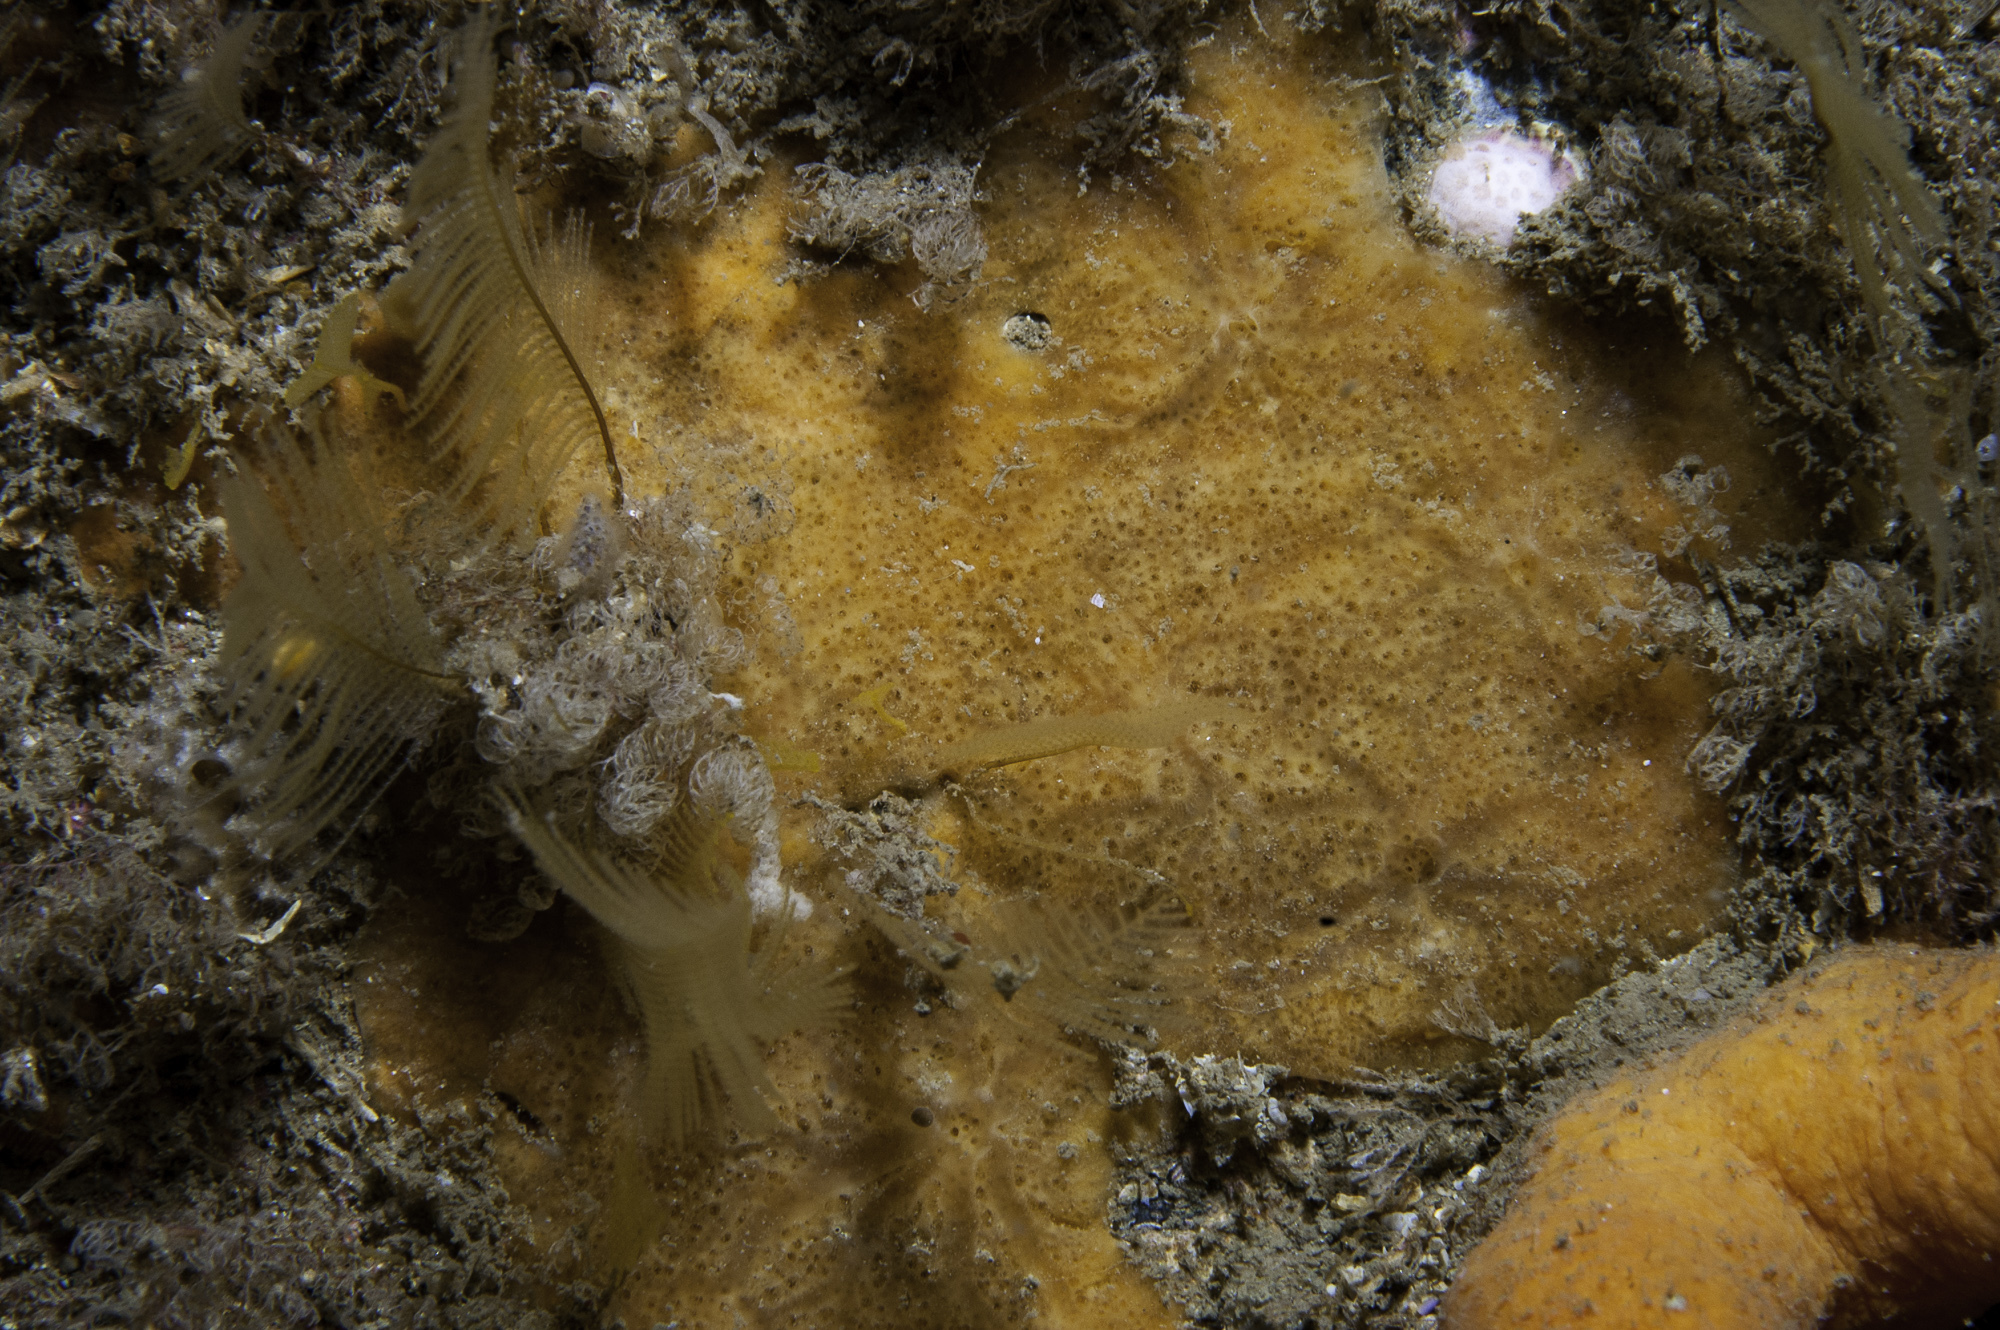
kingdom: Animalia
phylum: Porifera
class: Demospongiae
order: Poecilosclerida
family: Hymedesmiidae
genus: Plocamionida
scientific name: Plocamionida tylotata
